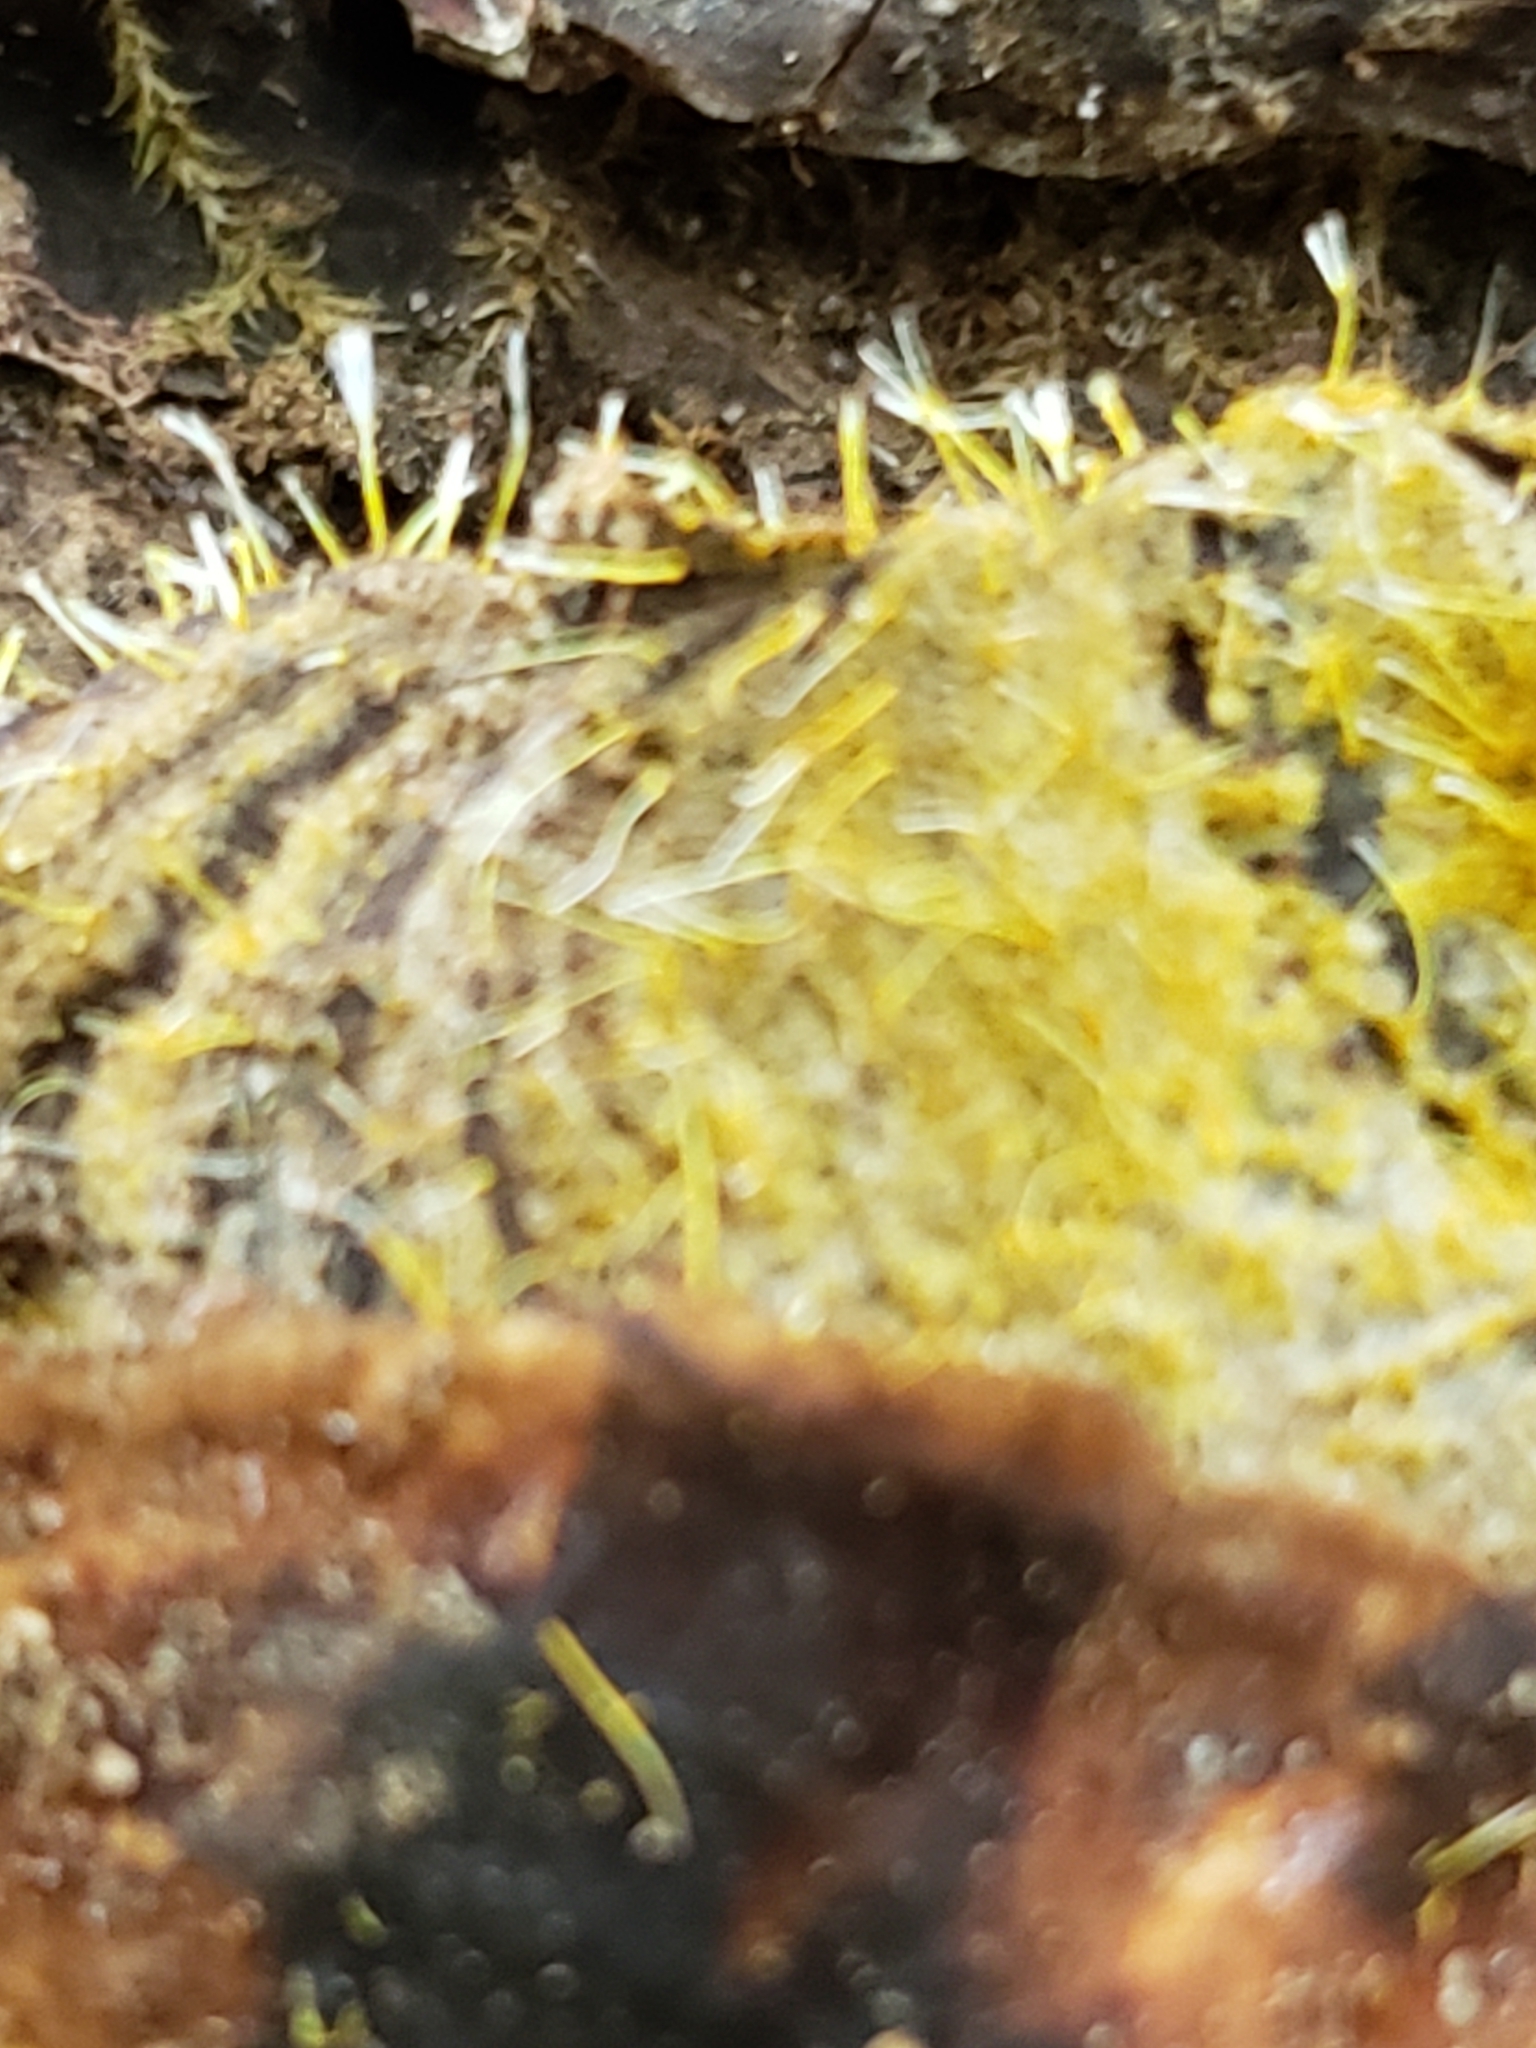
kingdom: Fungi
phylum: Ascomycota
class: Sordariomycetes
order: Hypocreales
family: Hypocreaceae
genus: Sphaerostilbella
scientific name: Sphaerostilbella aurifila
